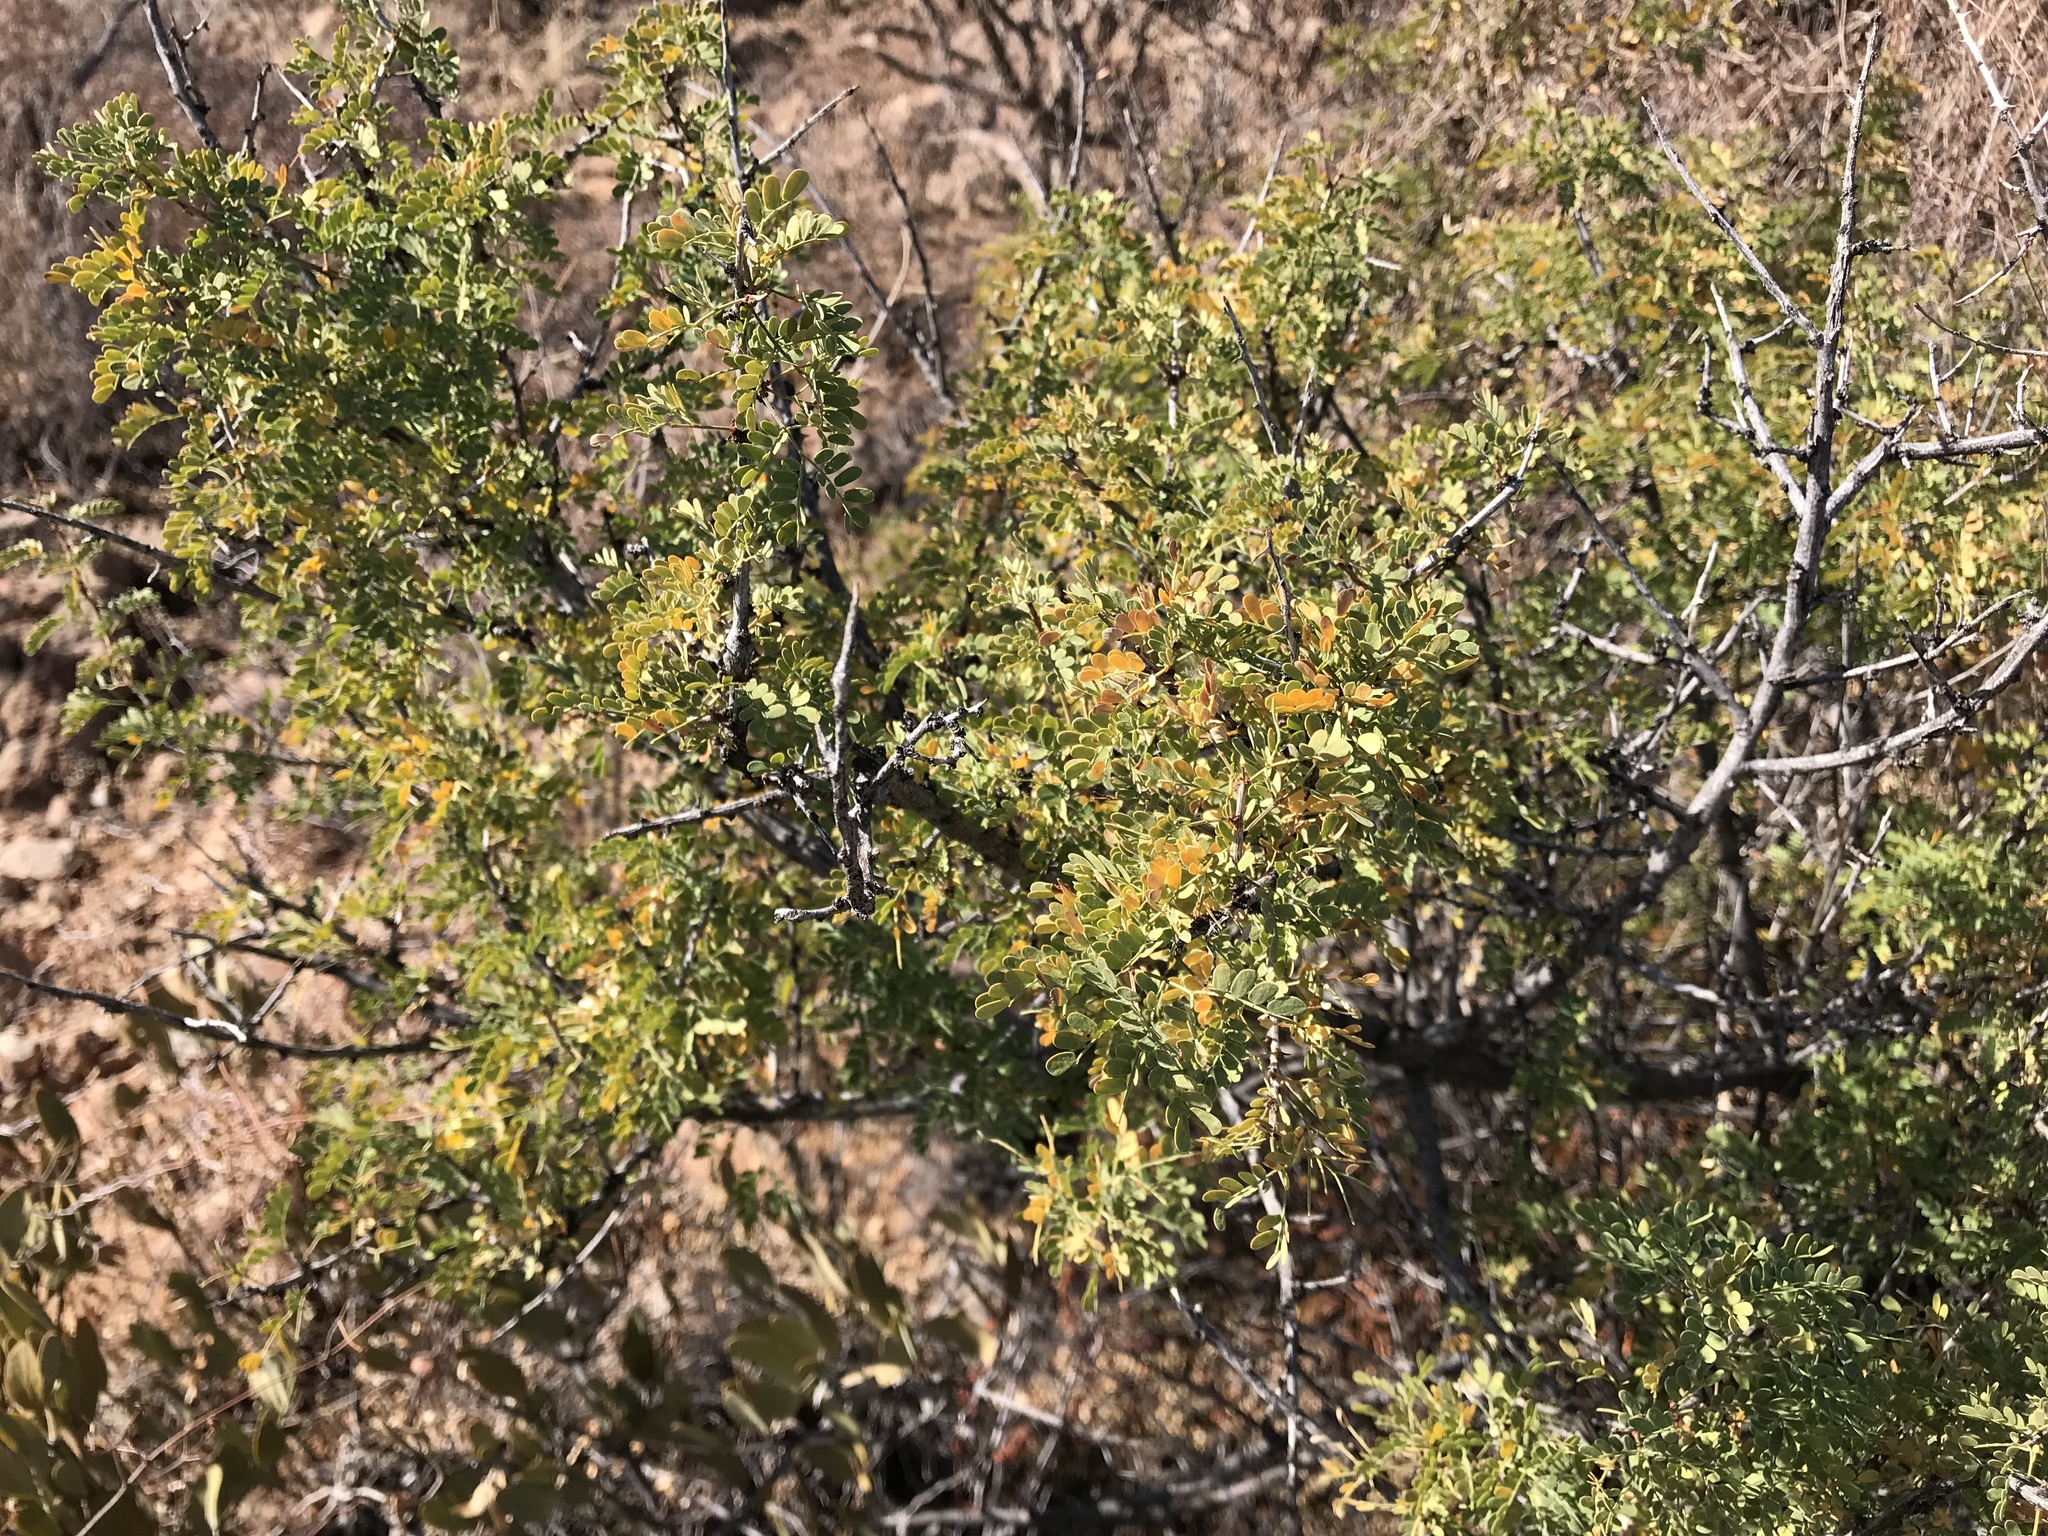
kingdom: Plantae
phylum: Tracheophyta
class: Magnoliopsida
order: Fabales
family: Fabaceae
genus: Senegalia
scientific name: Senegalia greggii
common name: Texas-mimosa
